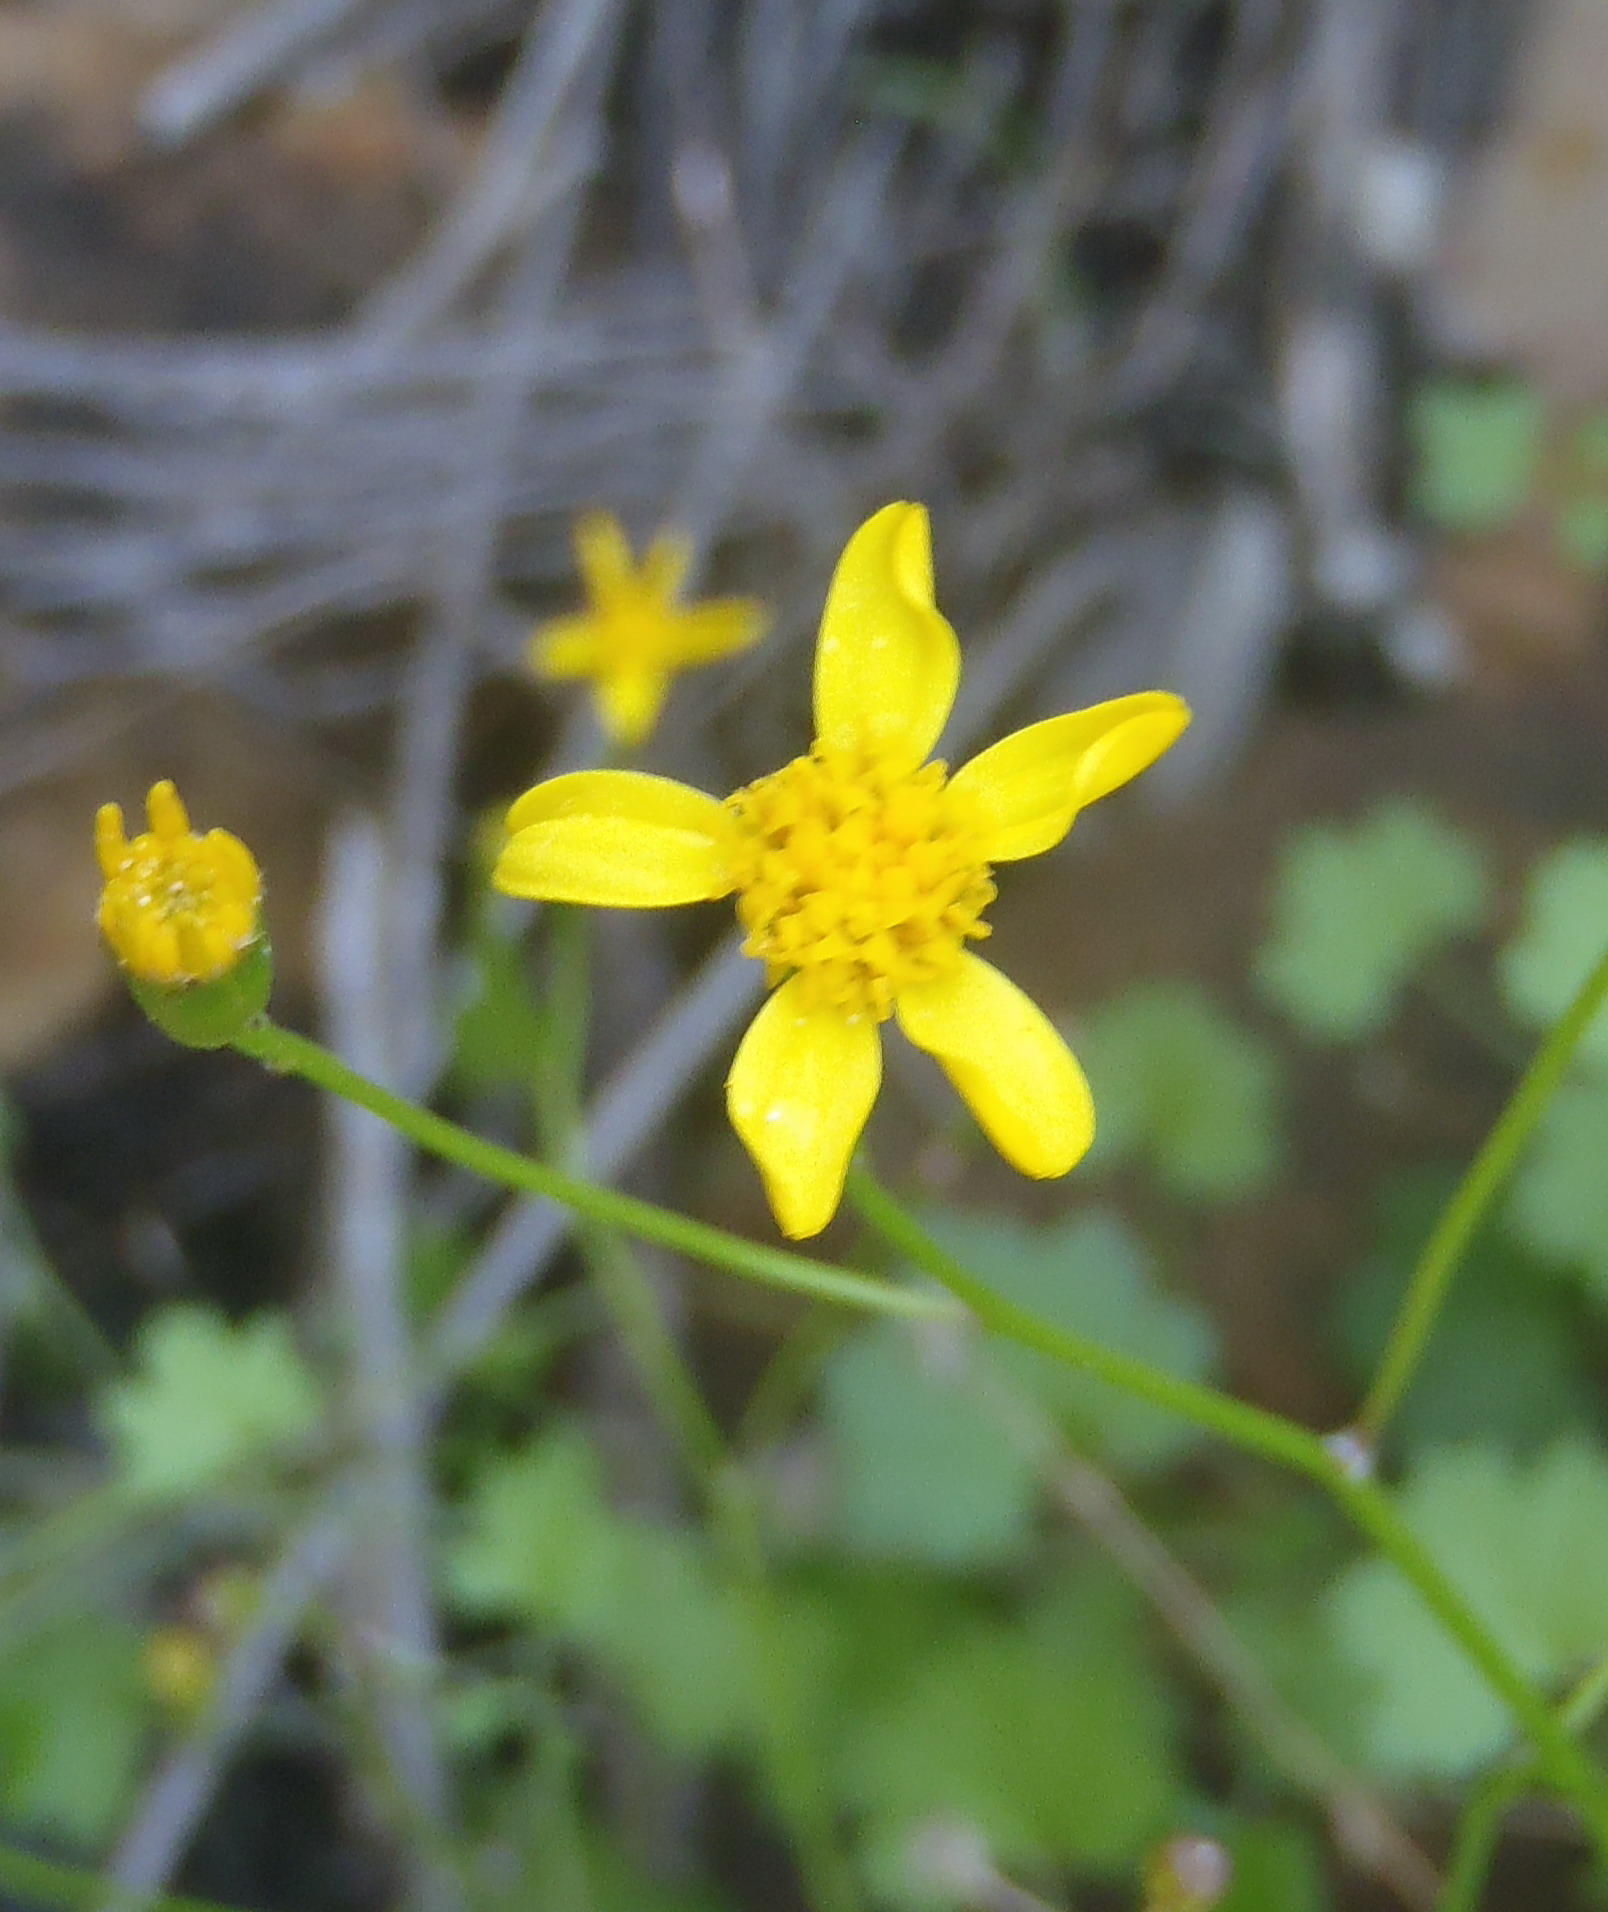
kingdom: Plantae
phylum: Tracheophyta
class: Magnoliopsida
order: Asterales
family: Asteraceae
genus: Cineraria
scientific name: Cineraria lobata
